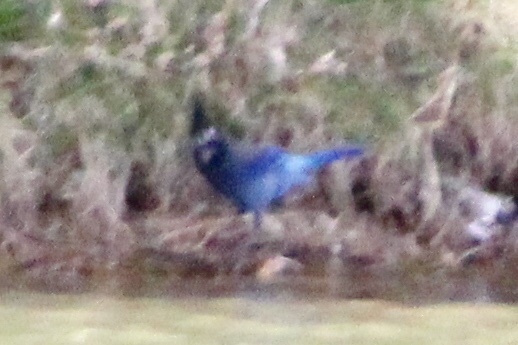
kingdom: Animalia
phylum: Chordata
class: Aves
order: Passeriformes
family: Corvidae
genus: Cyanocitta
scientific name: Cyanocitta stelleri
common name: Steller's jay
